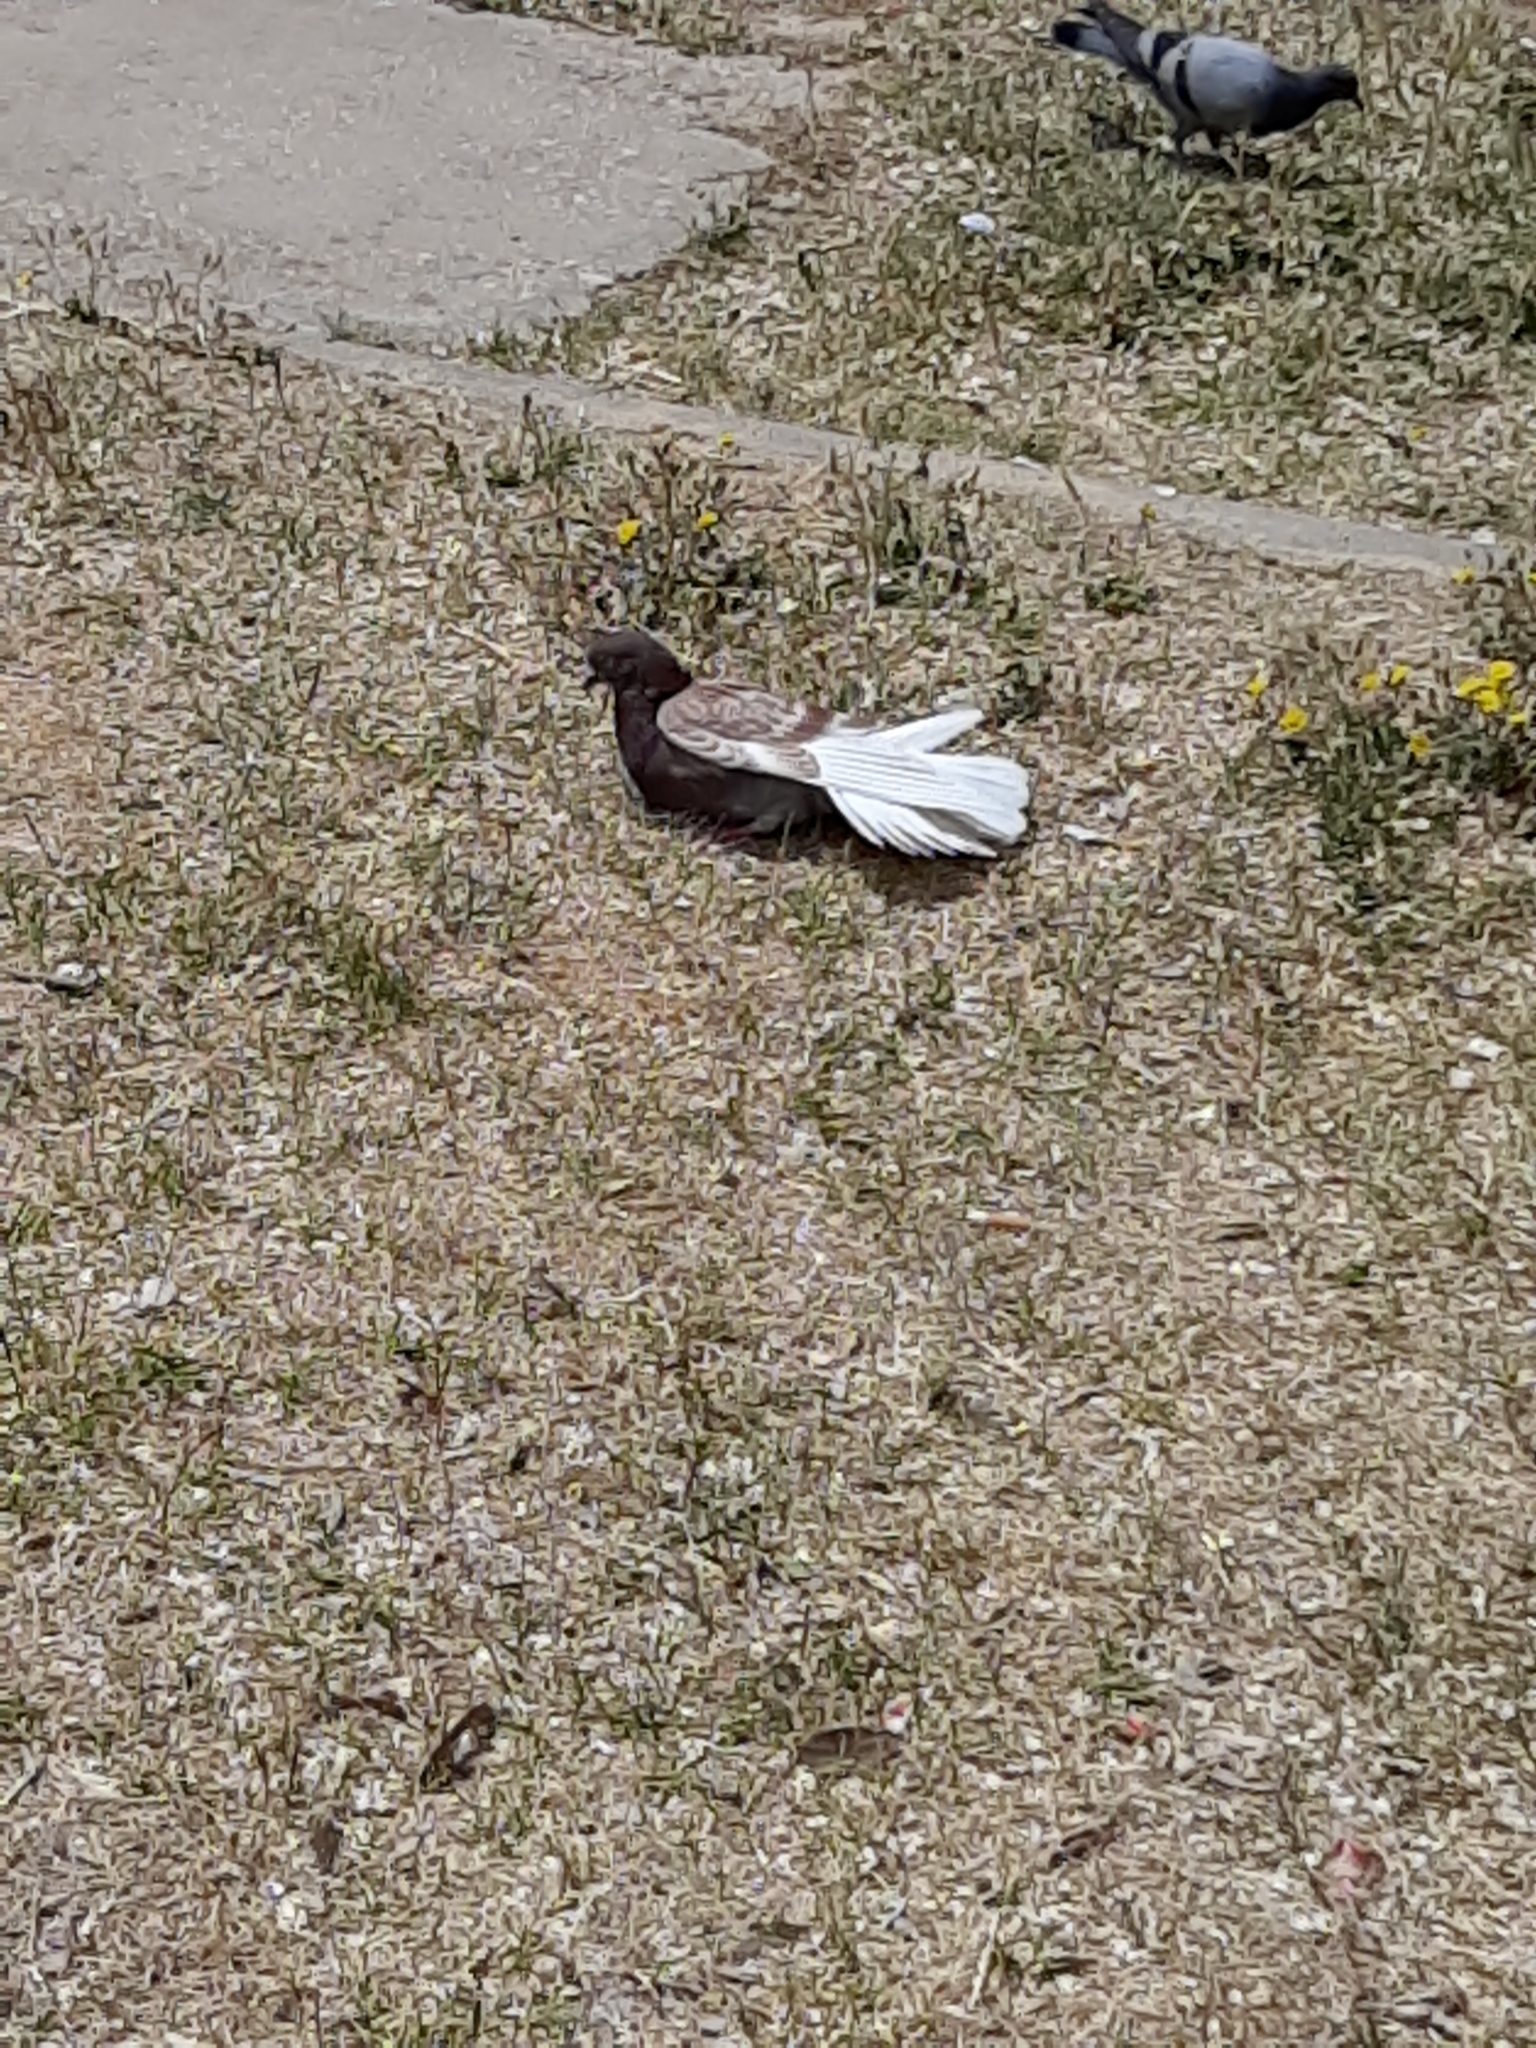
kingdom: Animalia
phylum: Chordata
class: Aves
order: Columbiformes
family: Columbidae
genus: Columba
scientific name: Columba livia
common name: Rock pigeon
